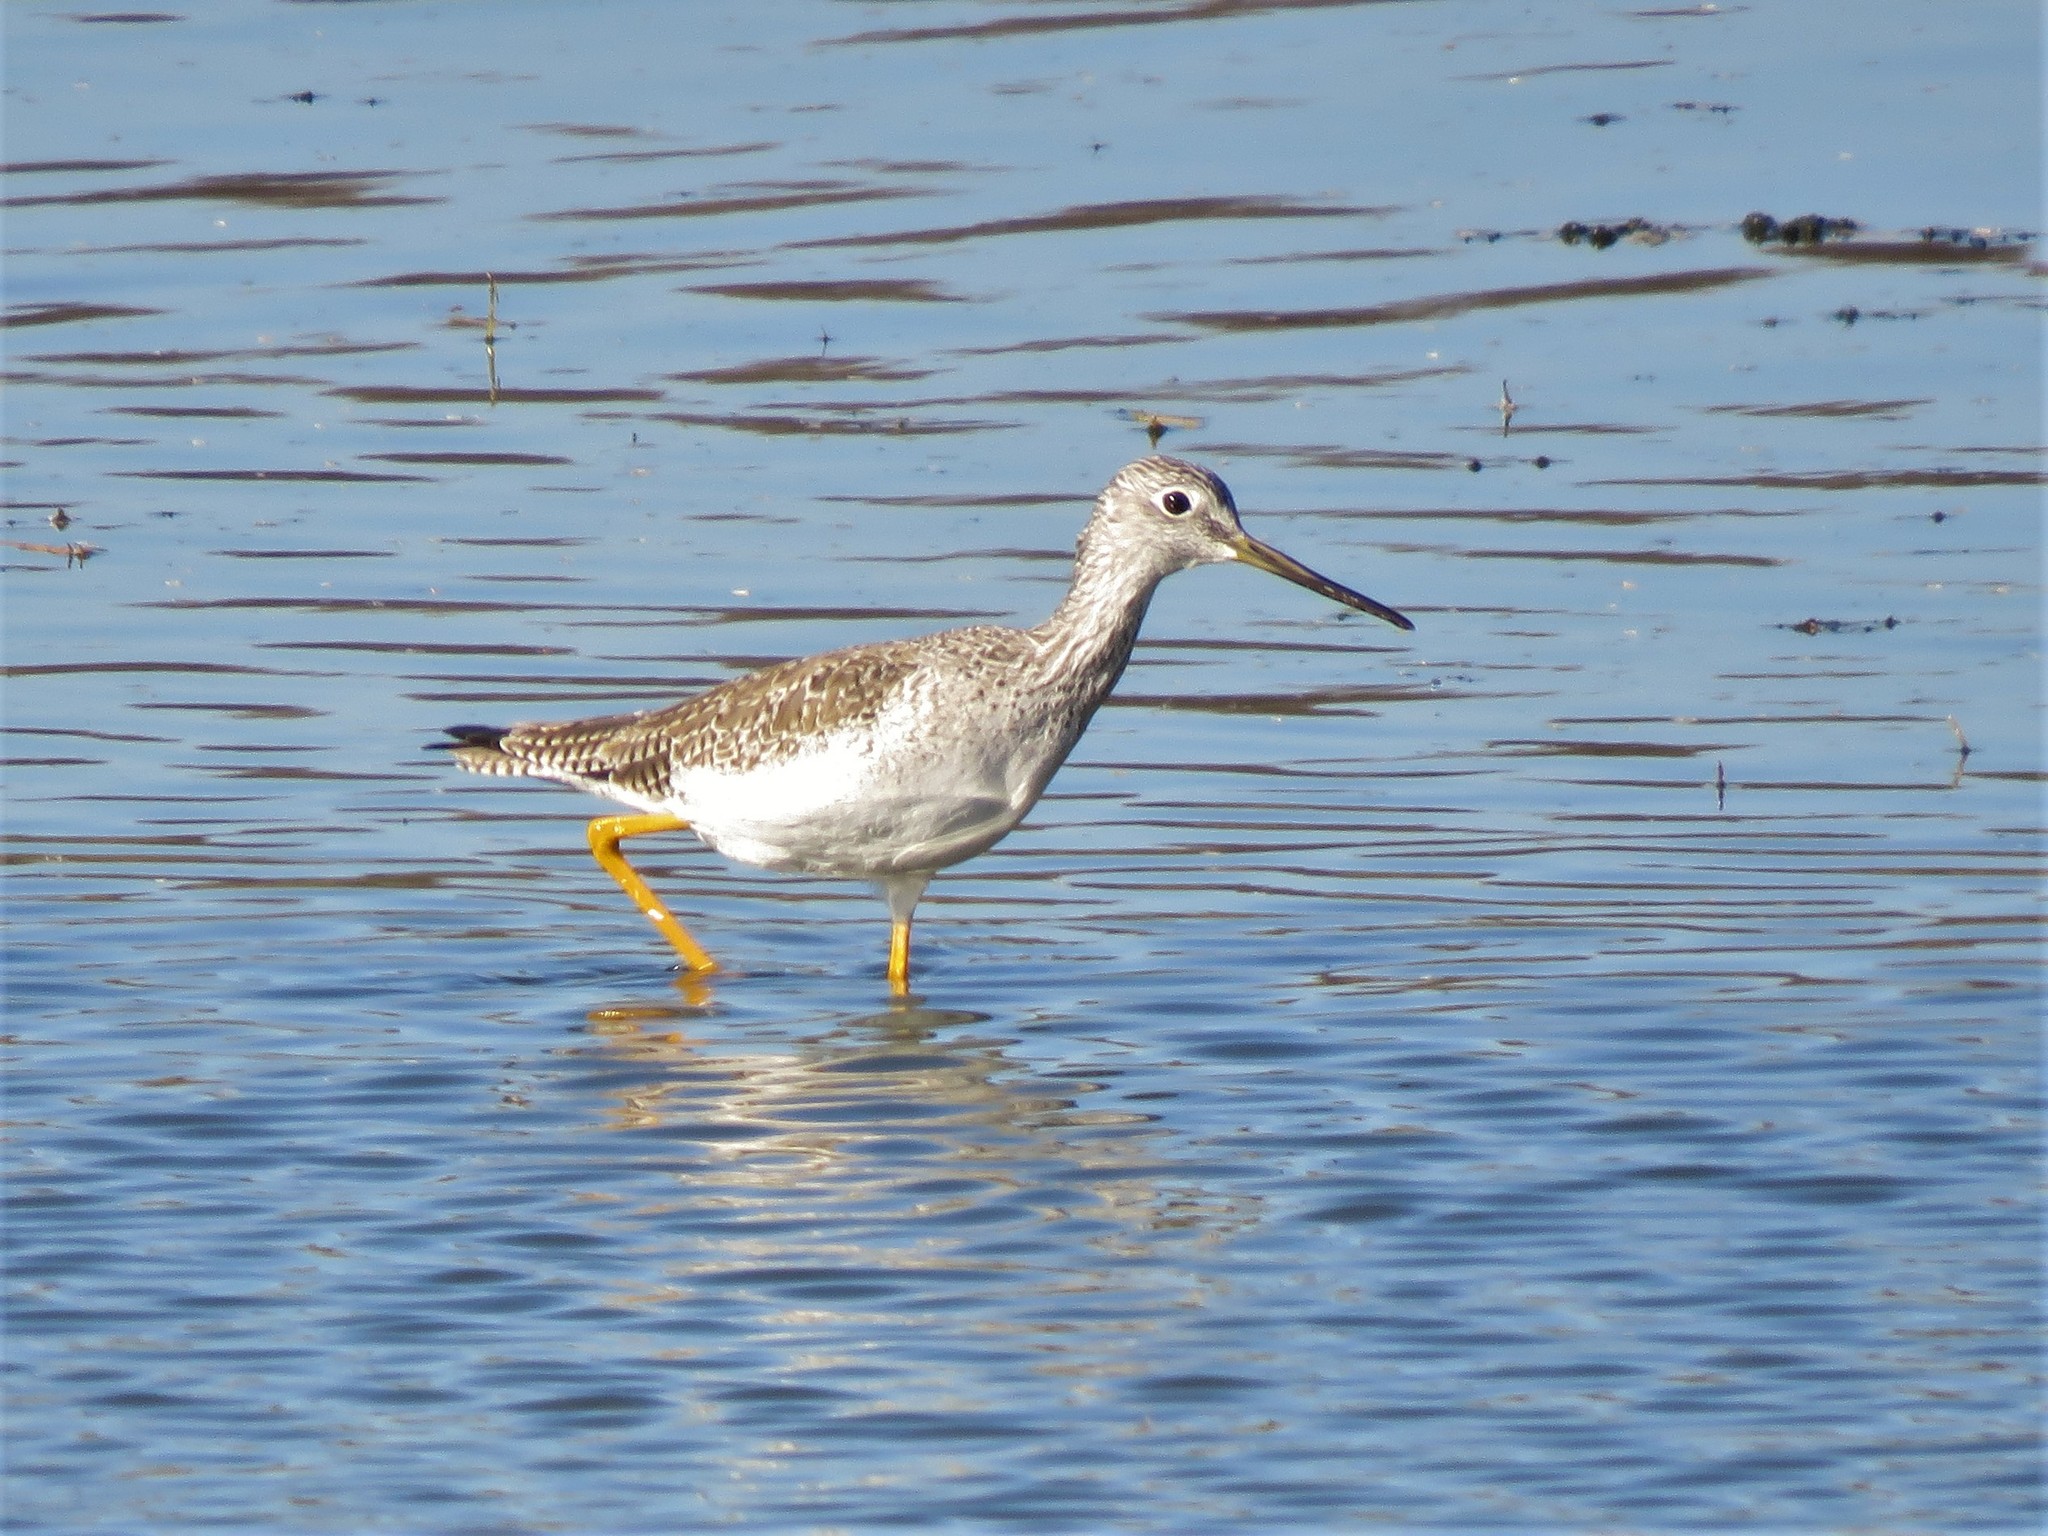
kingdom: Animalia
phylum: Chordata
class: Aves
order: Charadriiformes
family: Scolopacidae
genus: Tringa
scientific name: Tringa melanoleuca
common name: Greater yellowlegs
